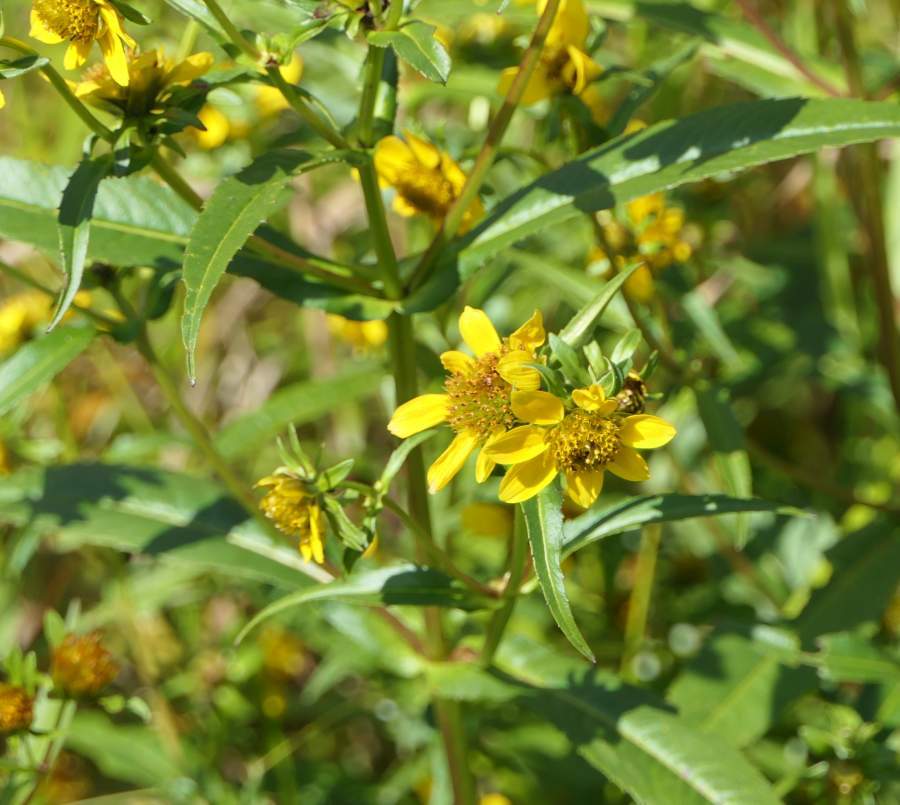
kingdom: Plantae
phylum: Tracheophyta
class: Magnoliopsida
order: Asterales
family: Asteraceae
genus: Bidens
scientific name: Bidens cernua
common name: Nodding bur-marigold
